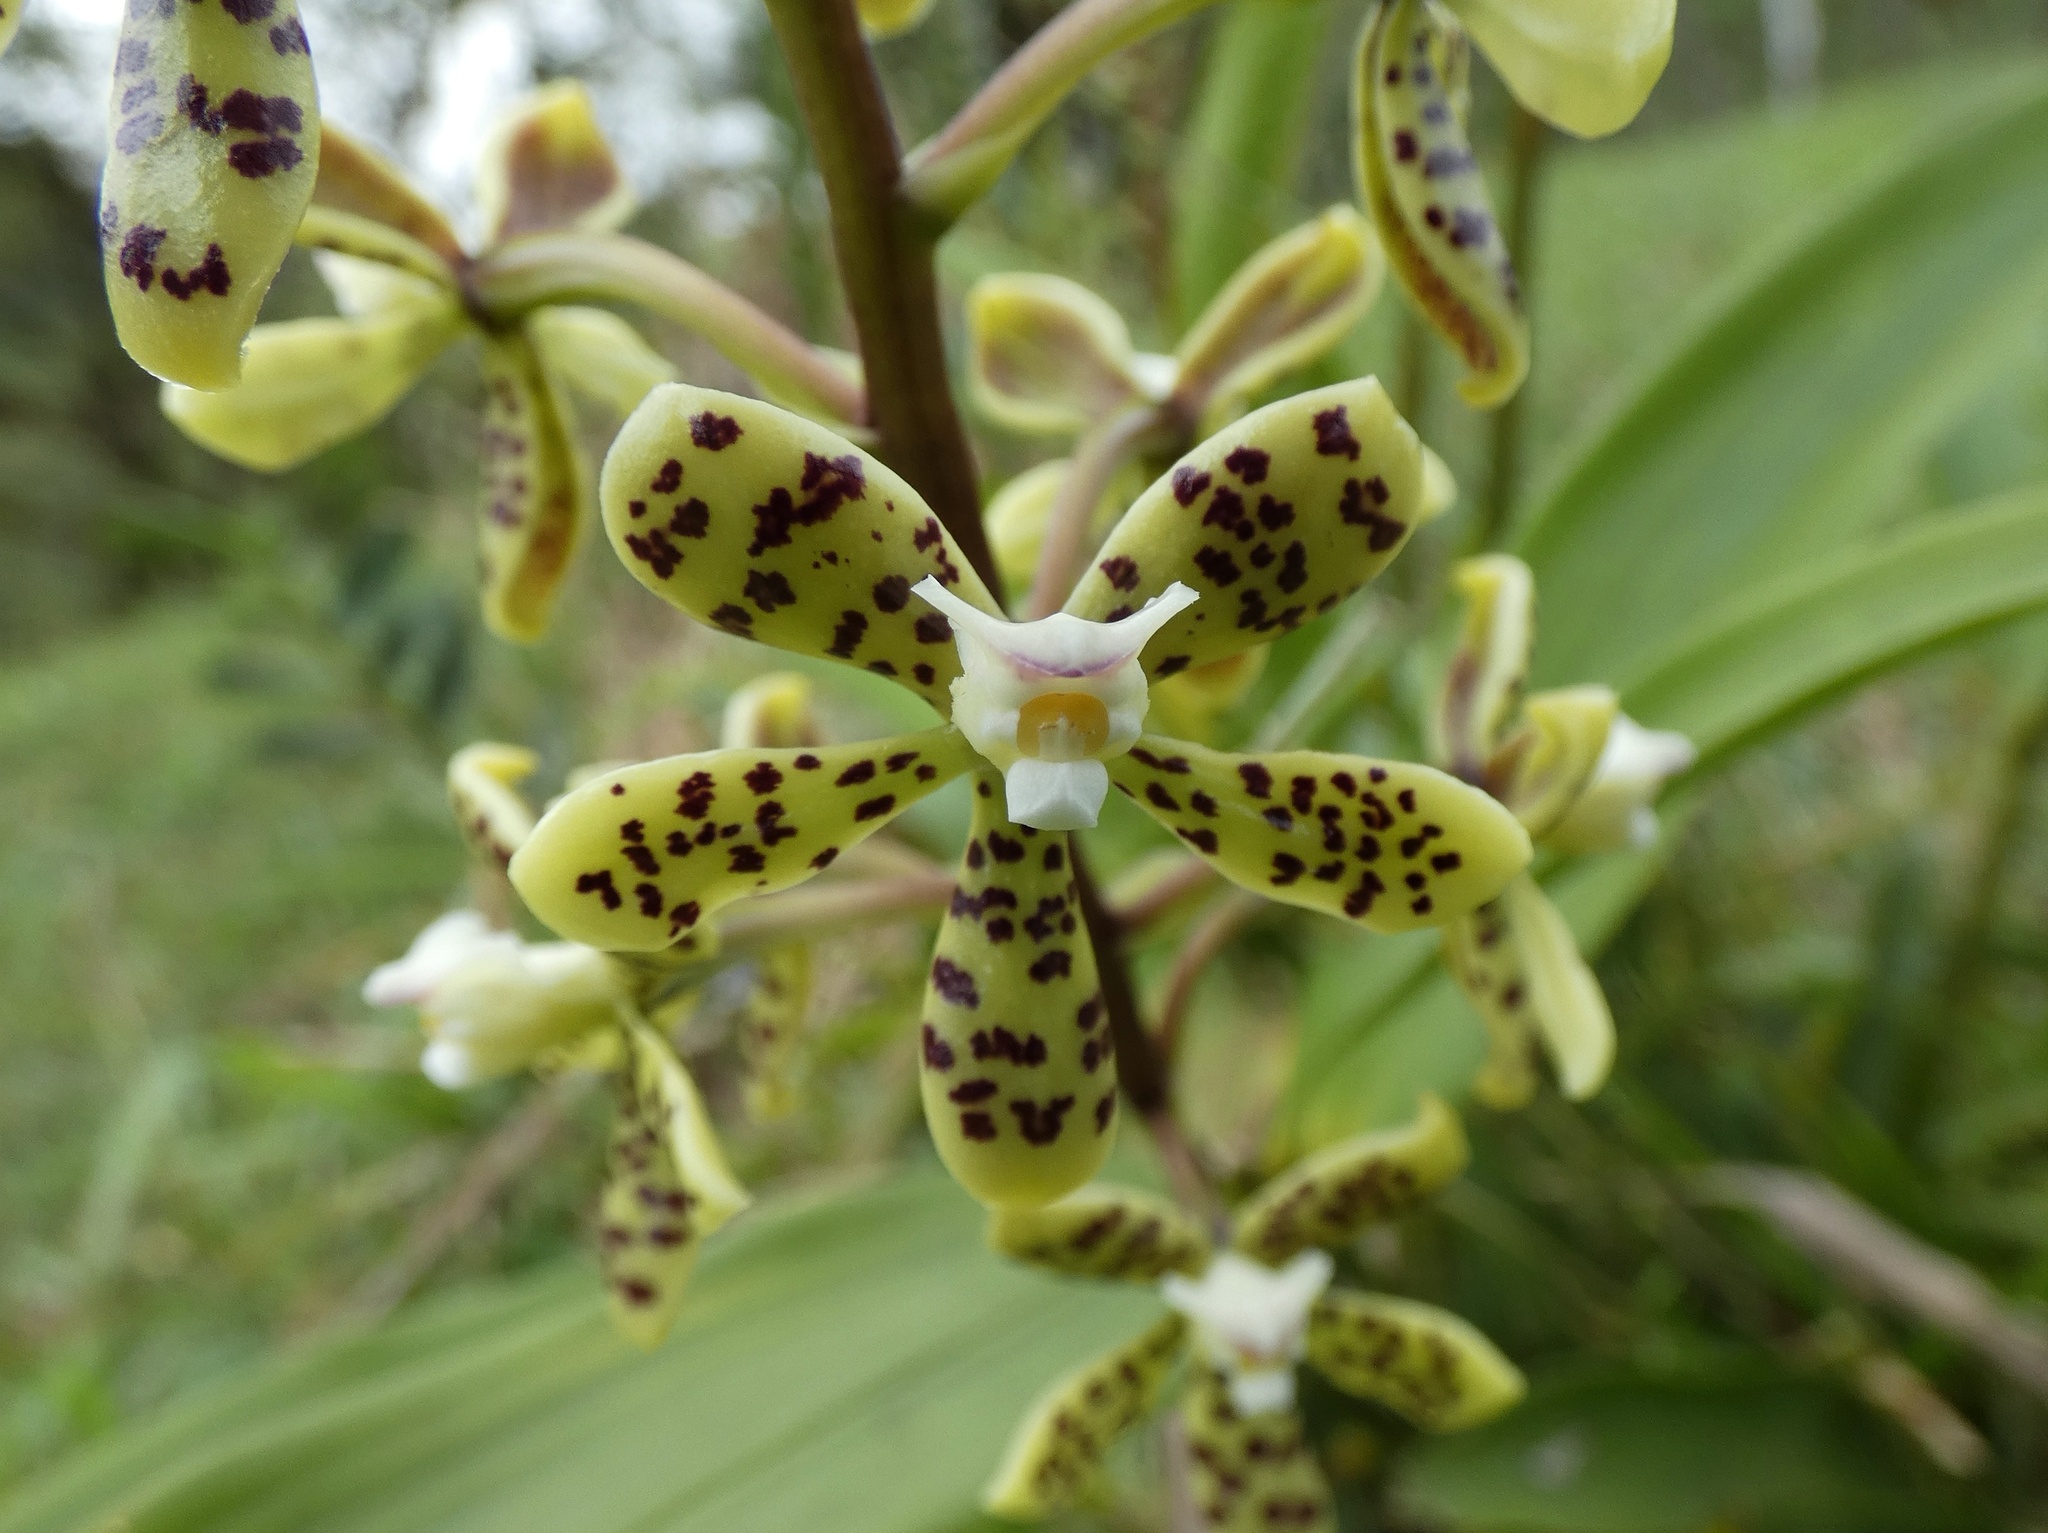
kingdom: Plantae
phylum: Tracheophyta
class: Liliopsida
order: Asparagales
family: Orchidaceae
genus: Prosthechea
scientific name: Prosthechea vespa
